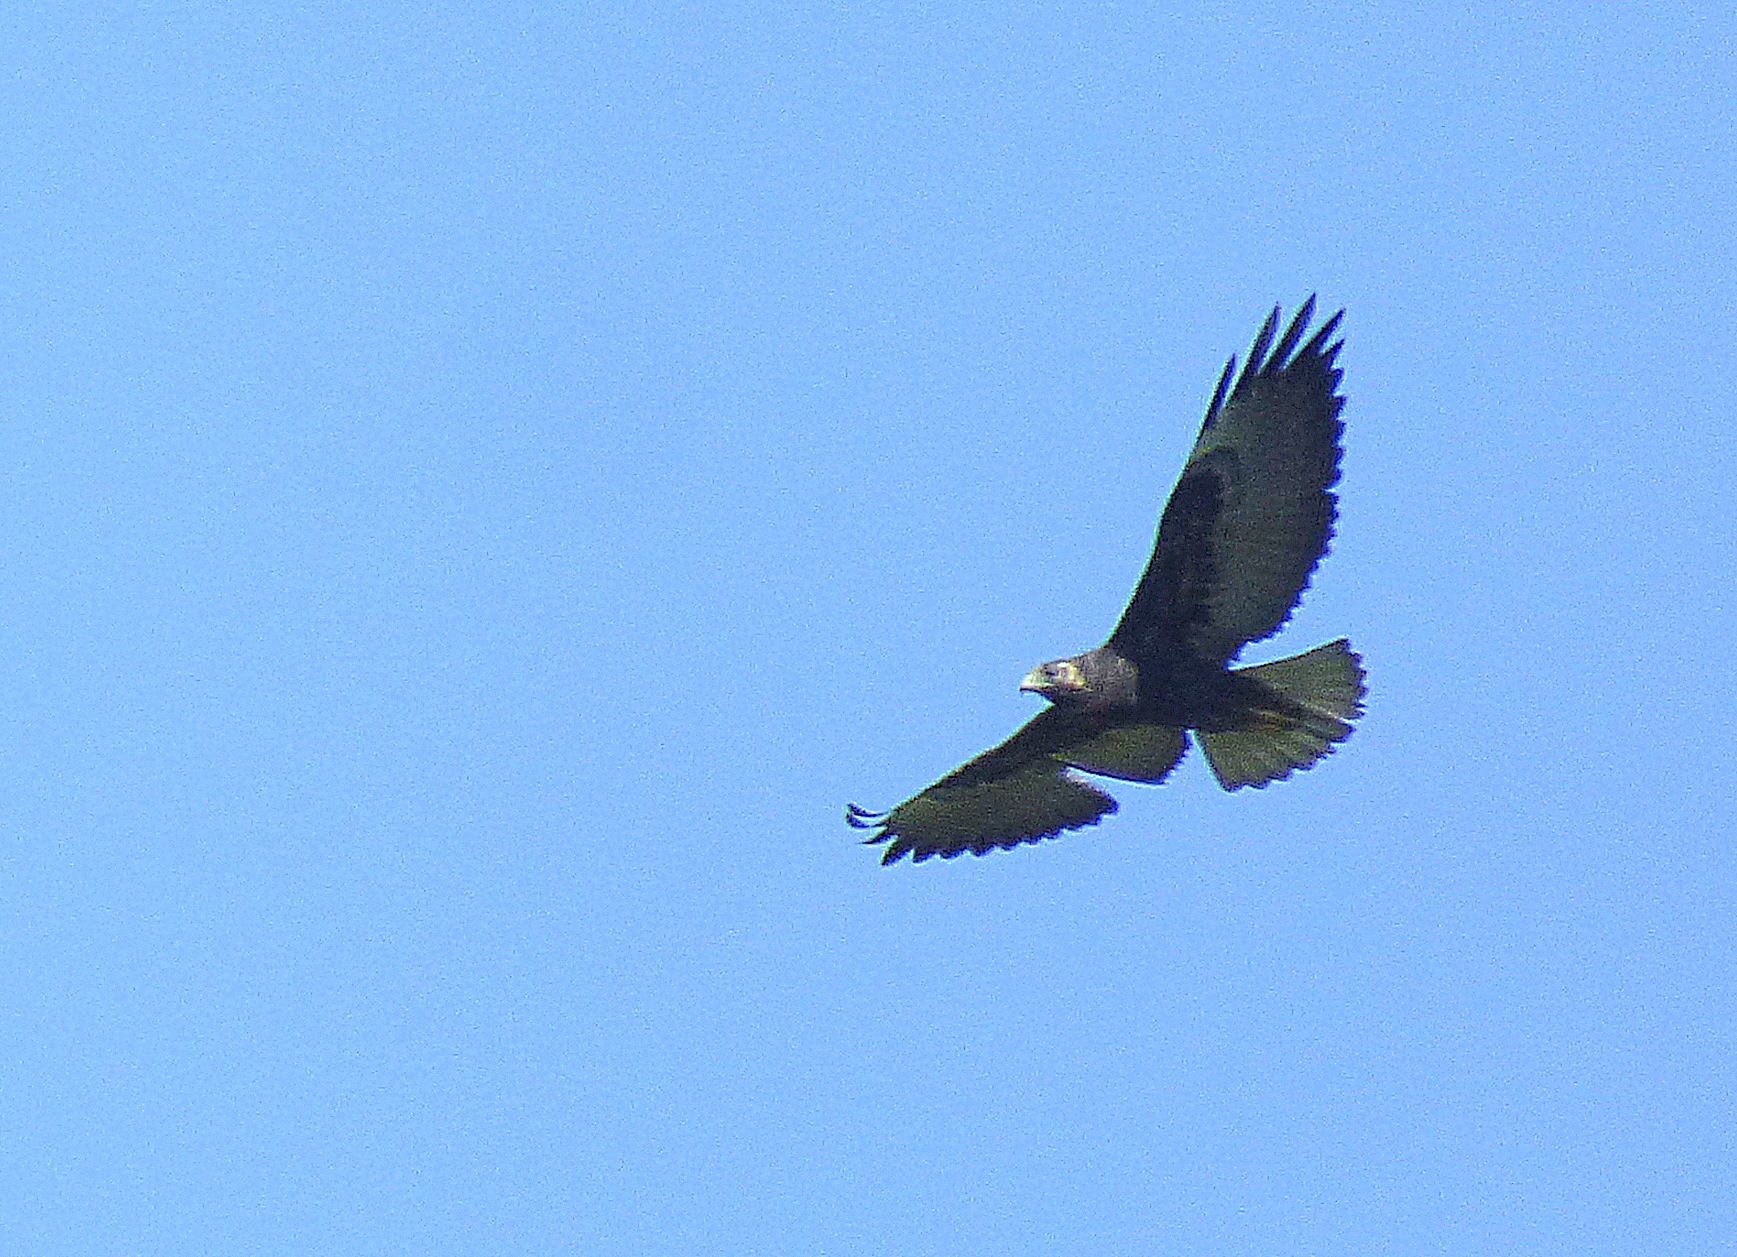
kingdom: Animalia
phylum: Chordata
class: Aves
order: Accipitriformes
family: Accipitridae
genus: Buteo
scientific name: Buteo albicaudatus
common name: White-tailed hawk
